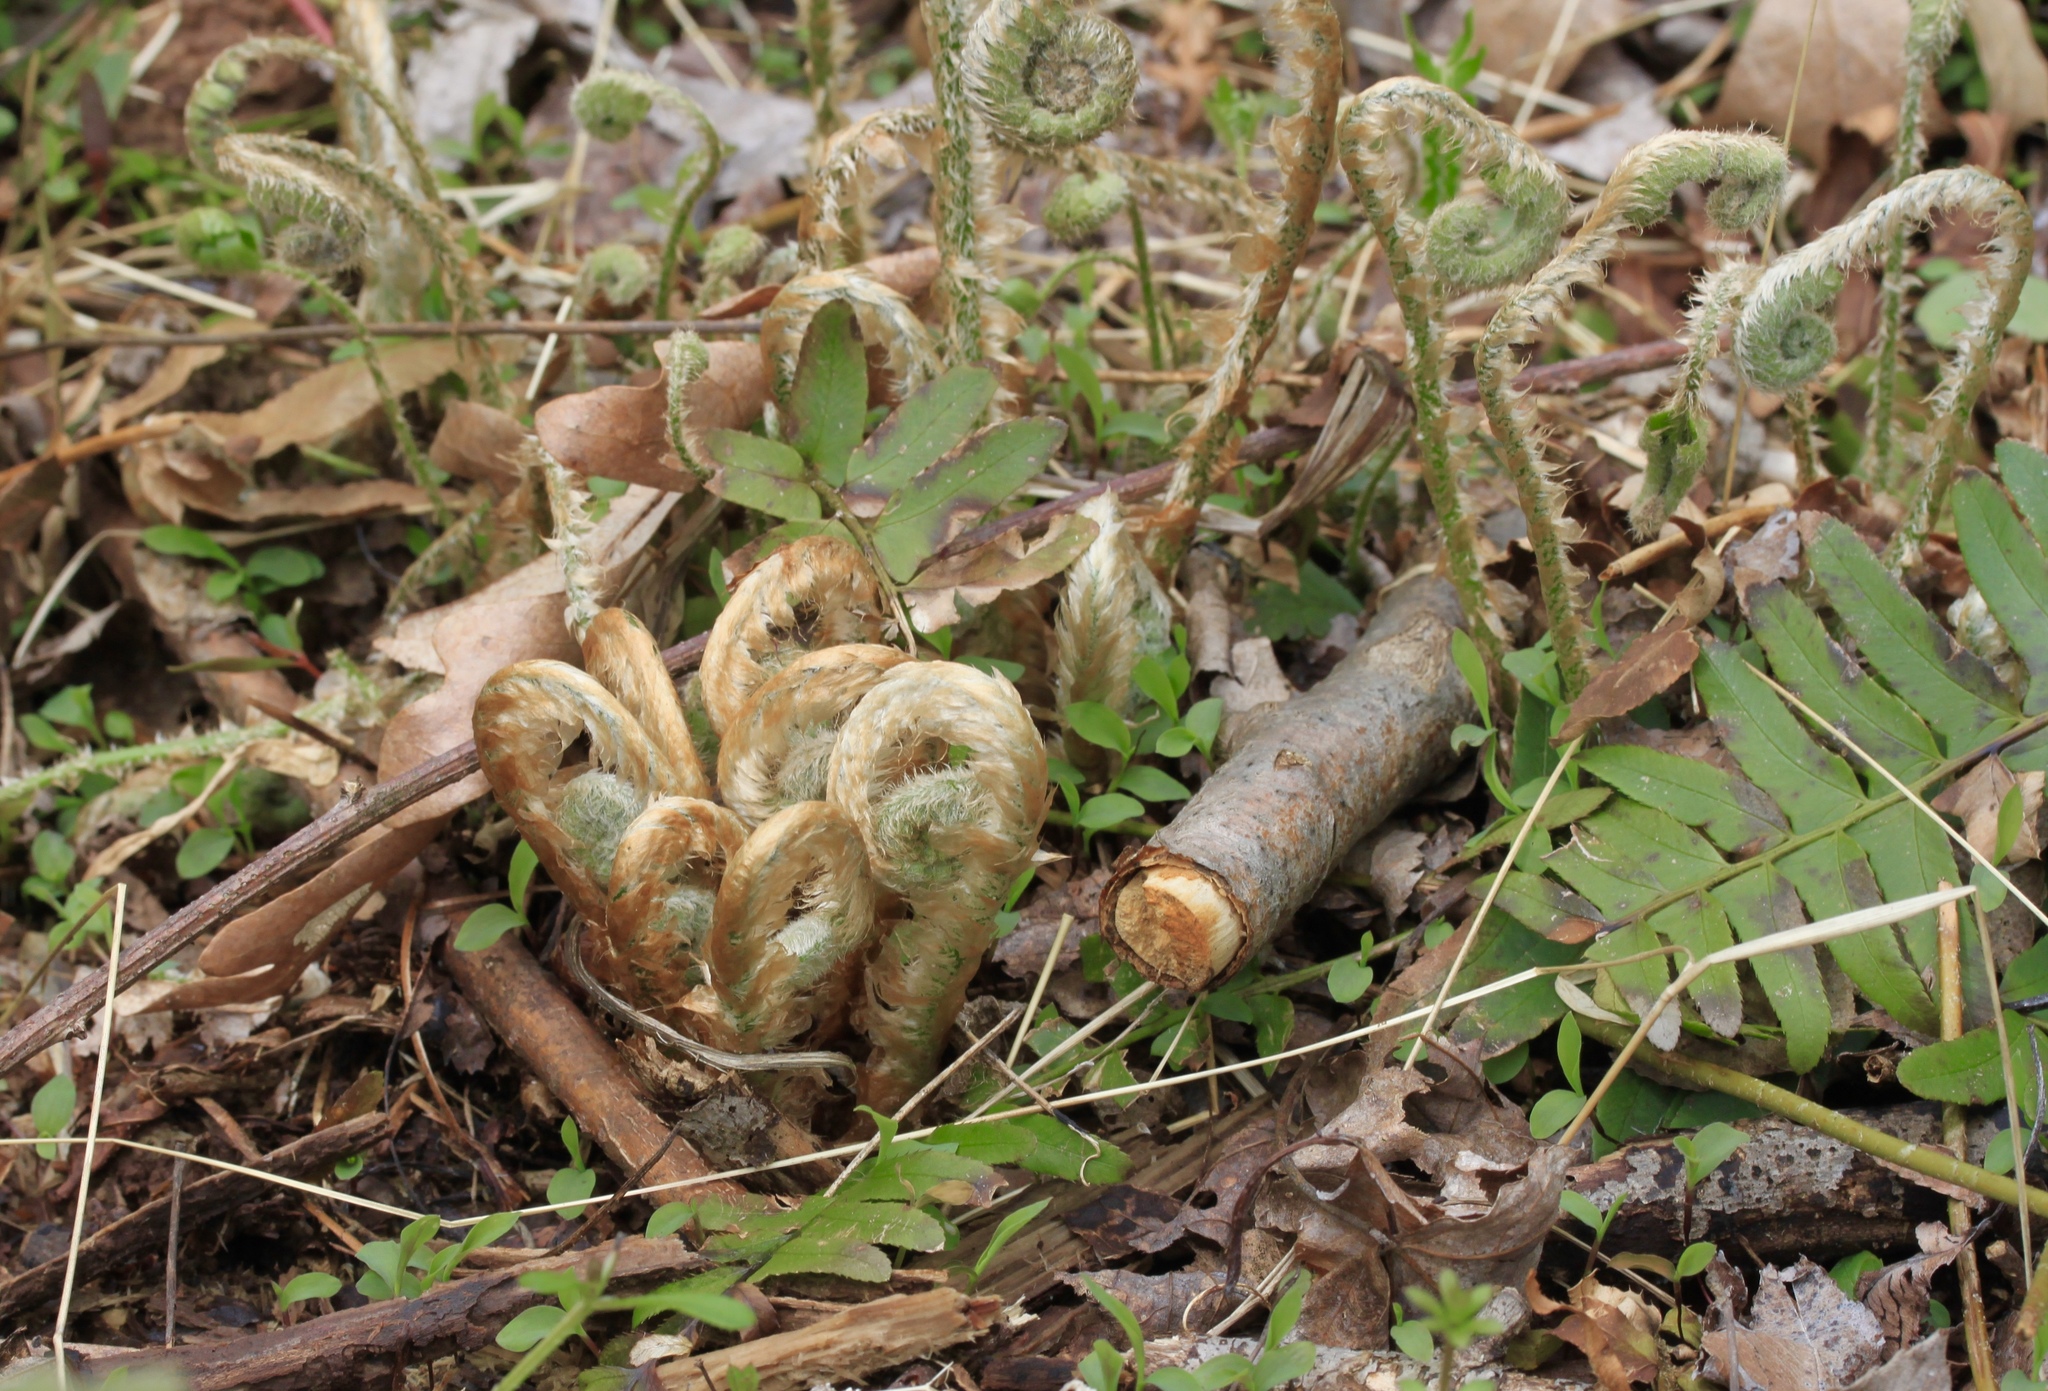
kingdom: Plantae
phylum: Tracheophyta
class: Polypodiopsida
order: Polypodiales
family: Dryopteridaceae
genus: Polystichum
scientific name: Polystichum acrostichoides
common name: Christmas fern
